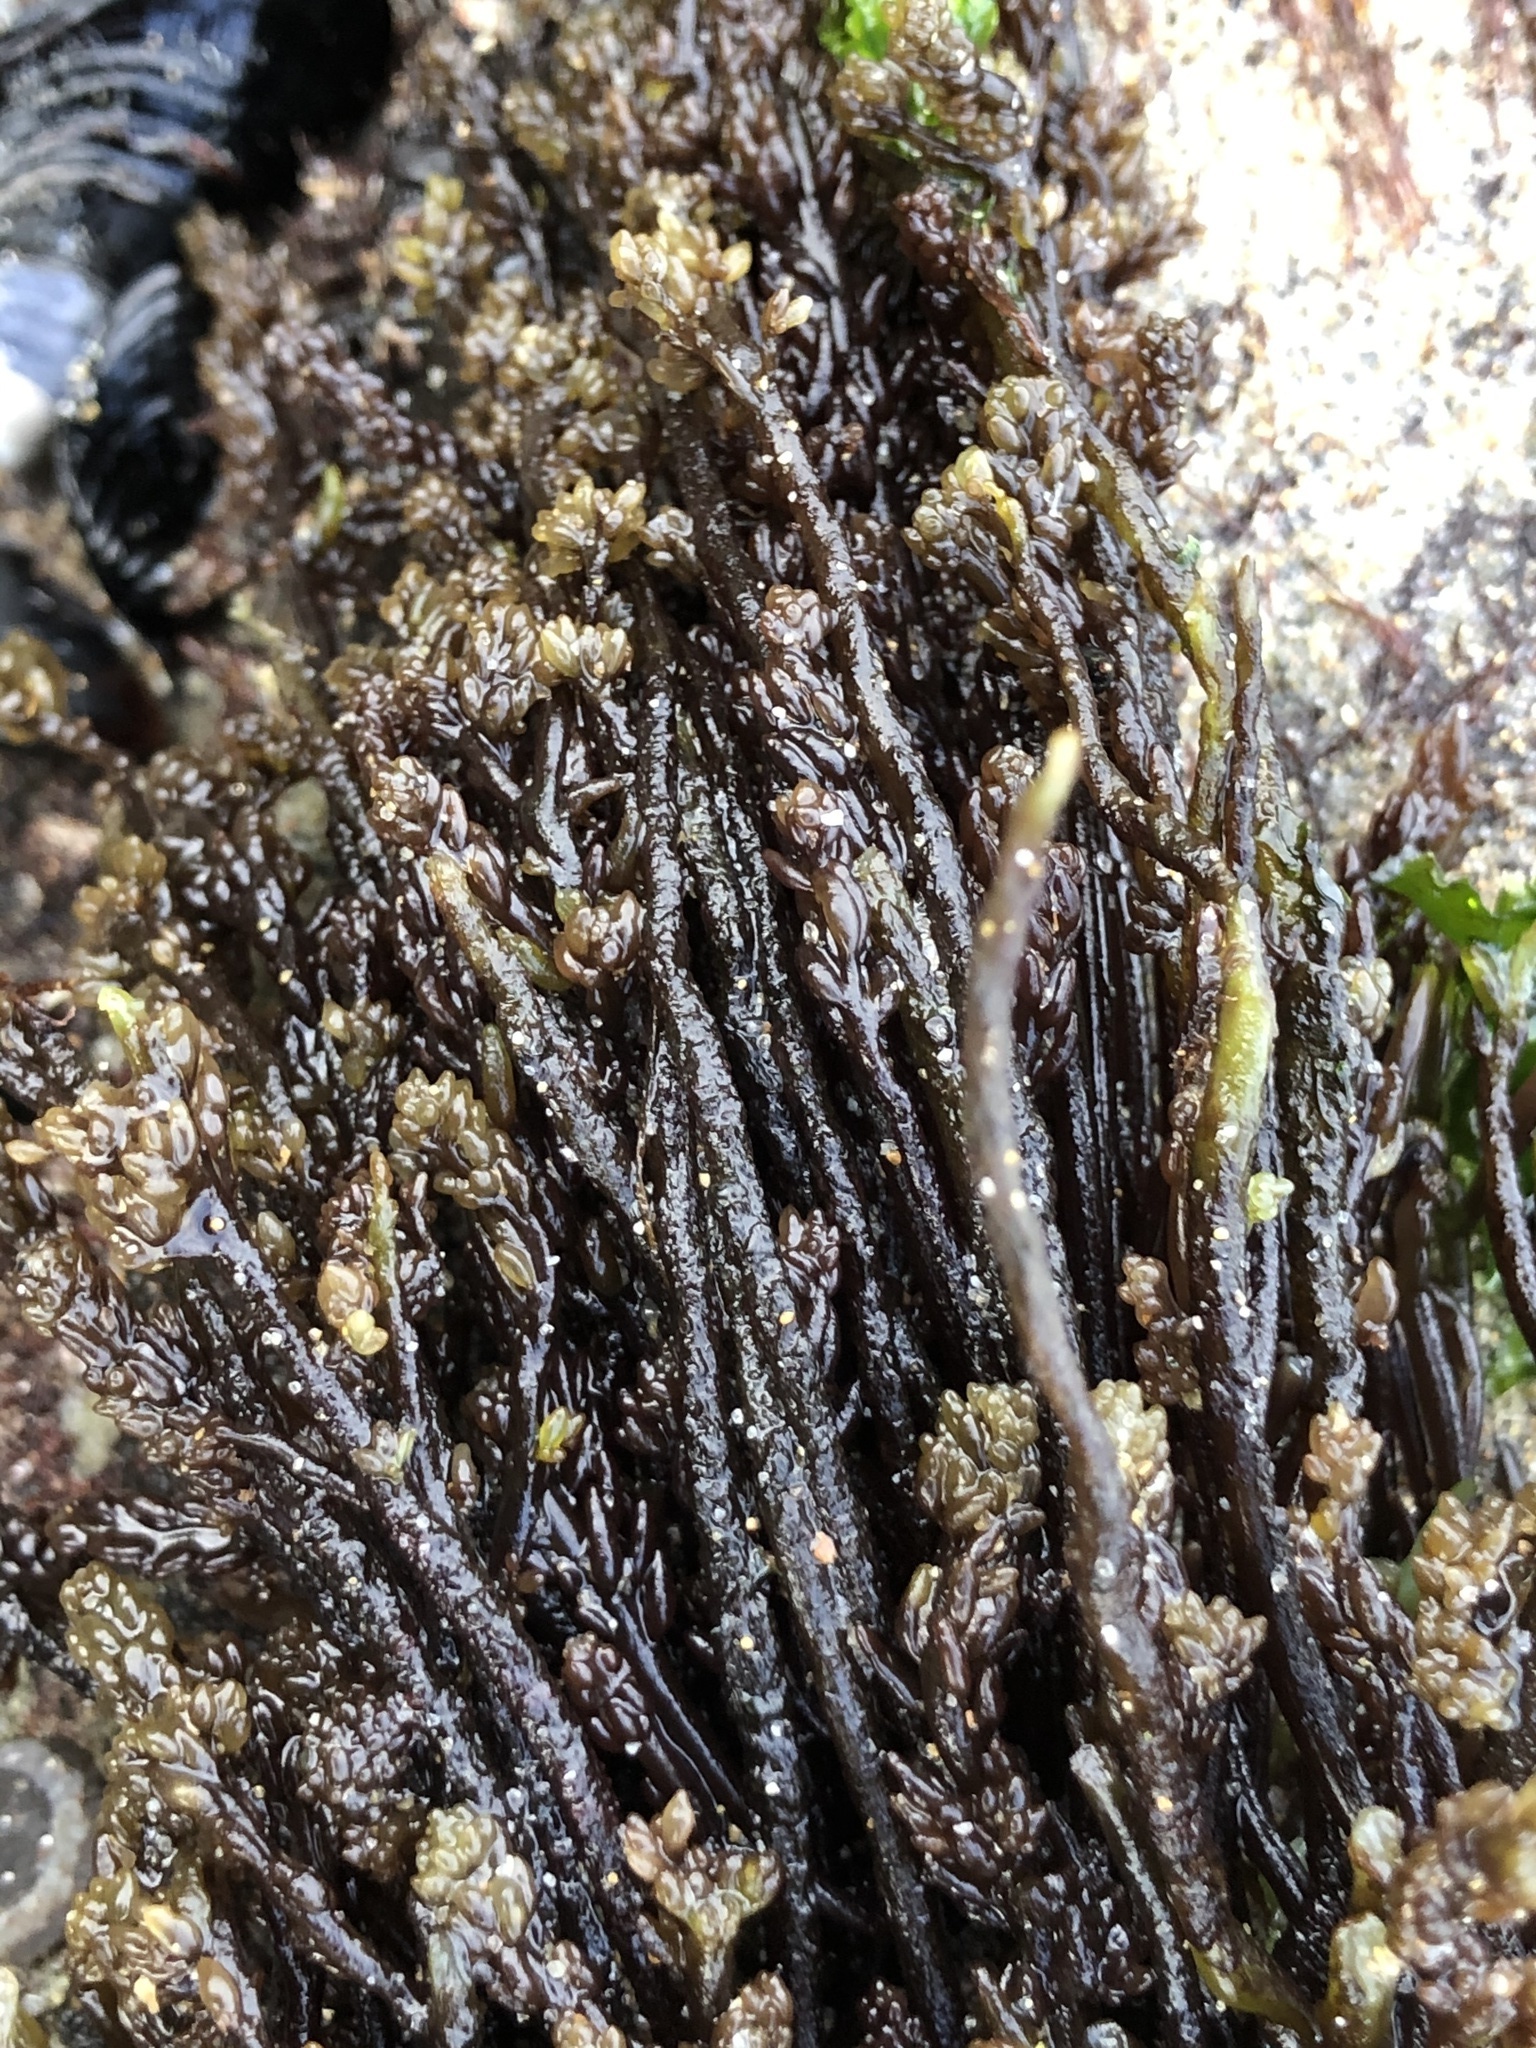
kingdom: Plantae
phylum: Rhodophyta
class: Florideophyceae
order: Rhodymeniales
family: Champiaceae
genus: Neogastroclonium
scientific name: Neogastroclonium subarticulatum
